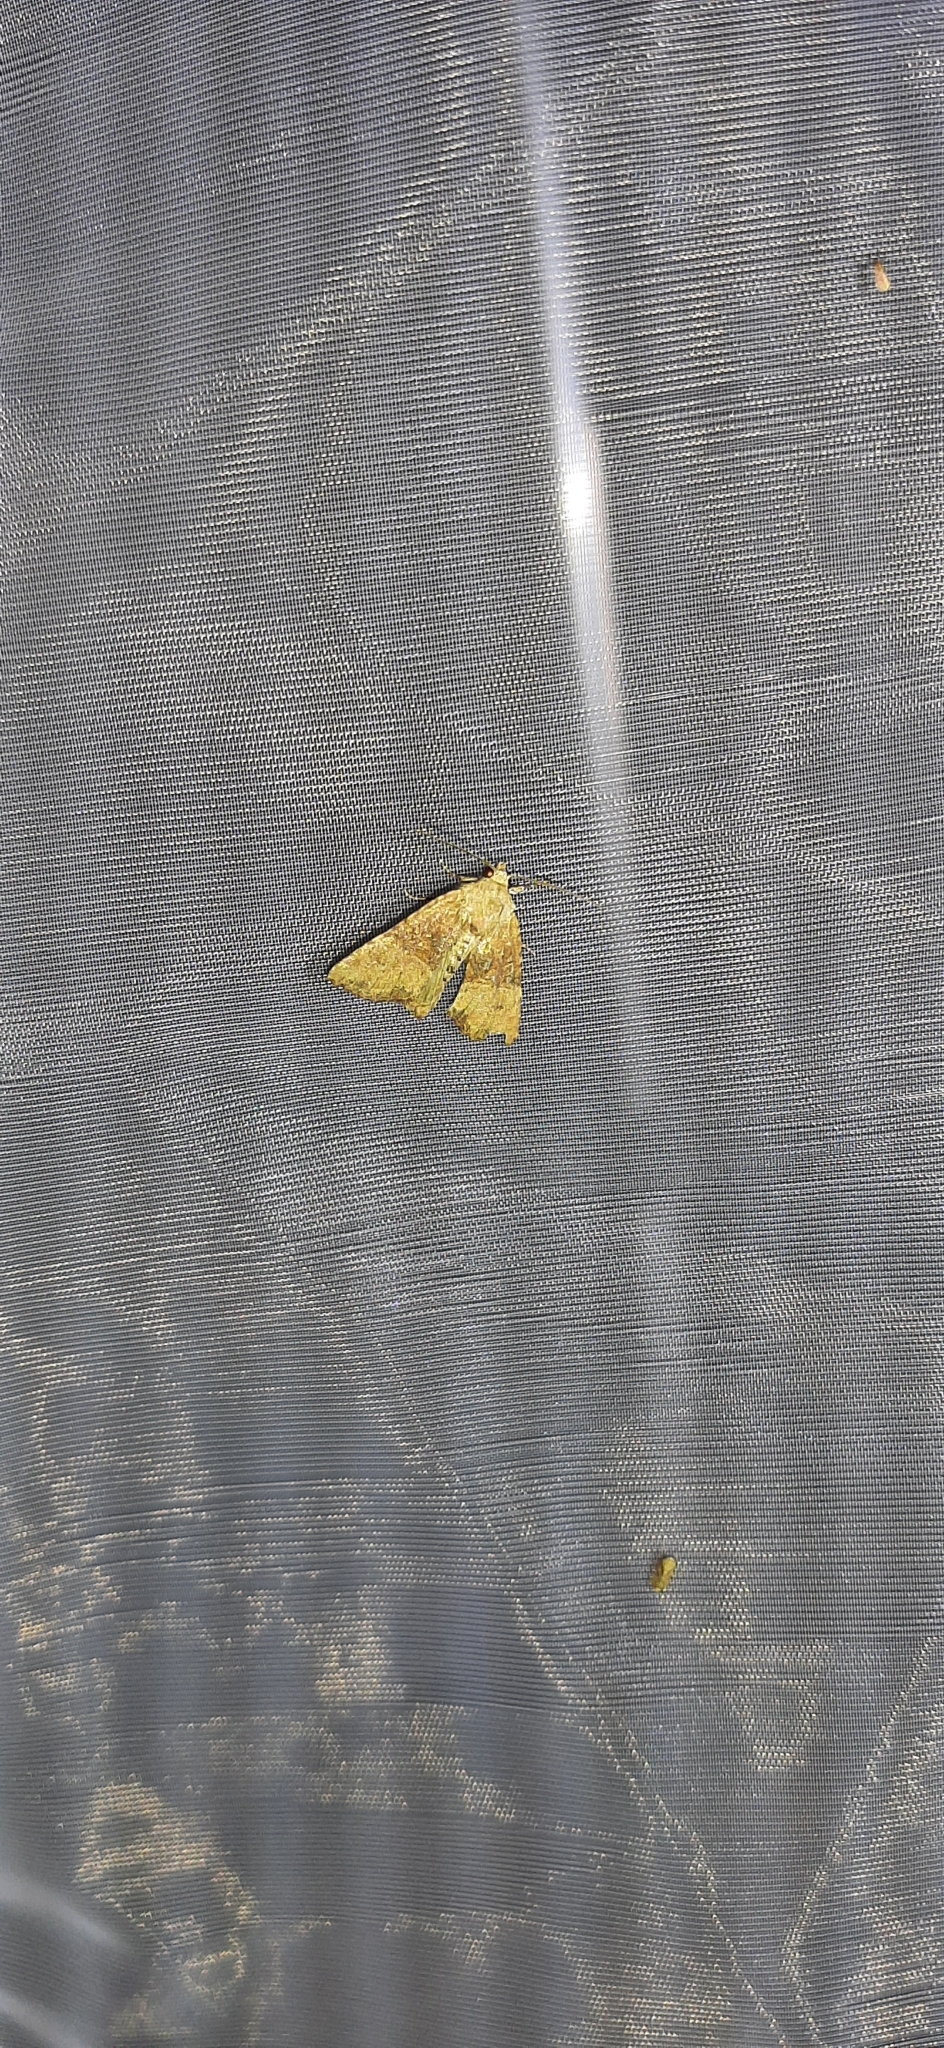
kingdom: Animalia
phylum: Arthropoda
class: Insecta
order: Lepidoptera
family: Noctuidae
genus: Mesoligia
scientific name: Mesoligia furuncula
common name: Cloaked minor
